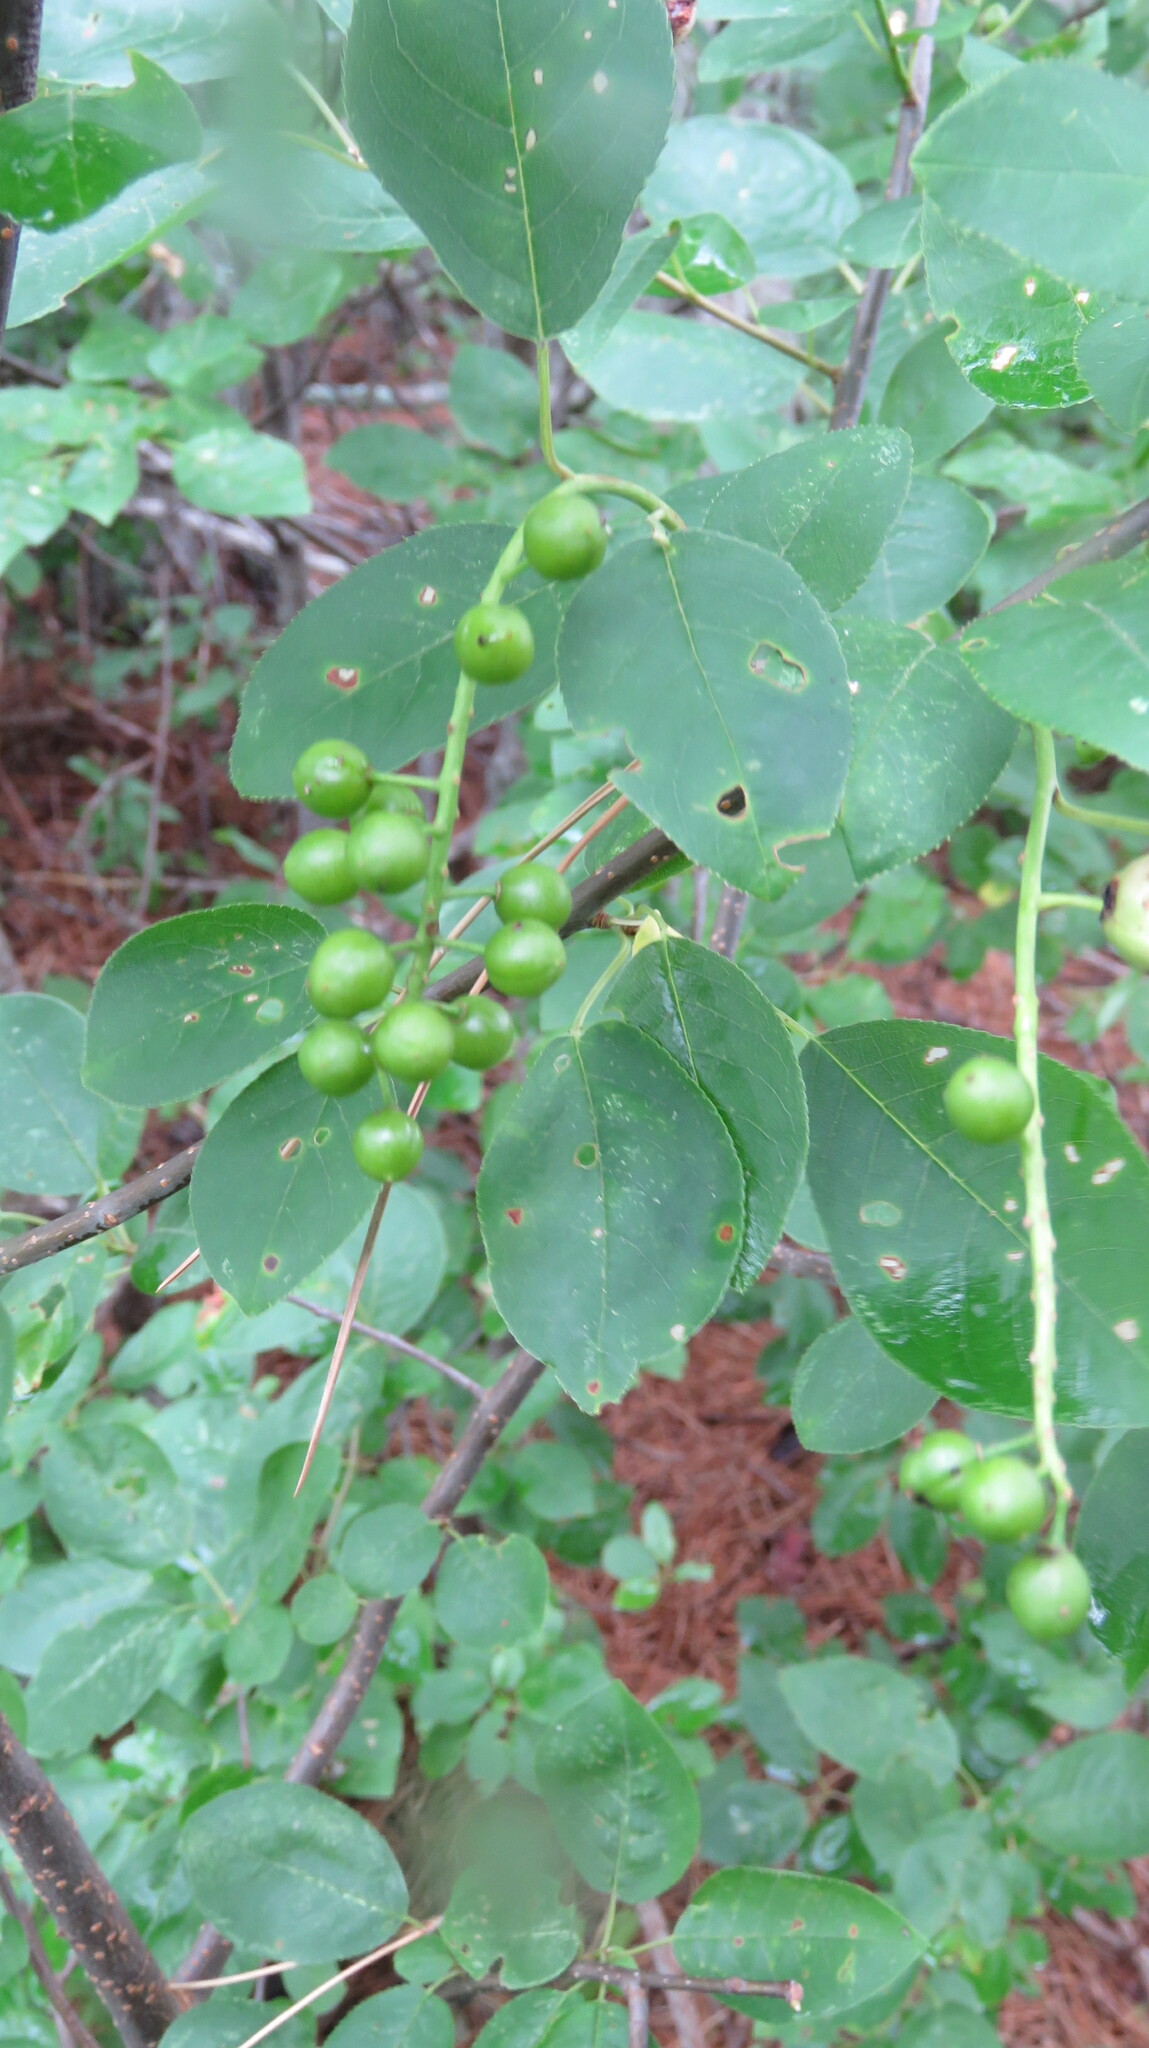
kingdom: Plantae
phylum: Tracheophyta
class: Magnoliopsida
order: Rosales
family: Rosaceae
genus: Prunus
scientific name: Prunus virginiana
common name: Chokecherry
